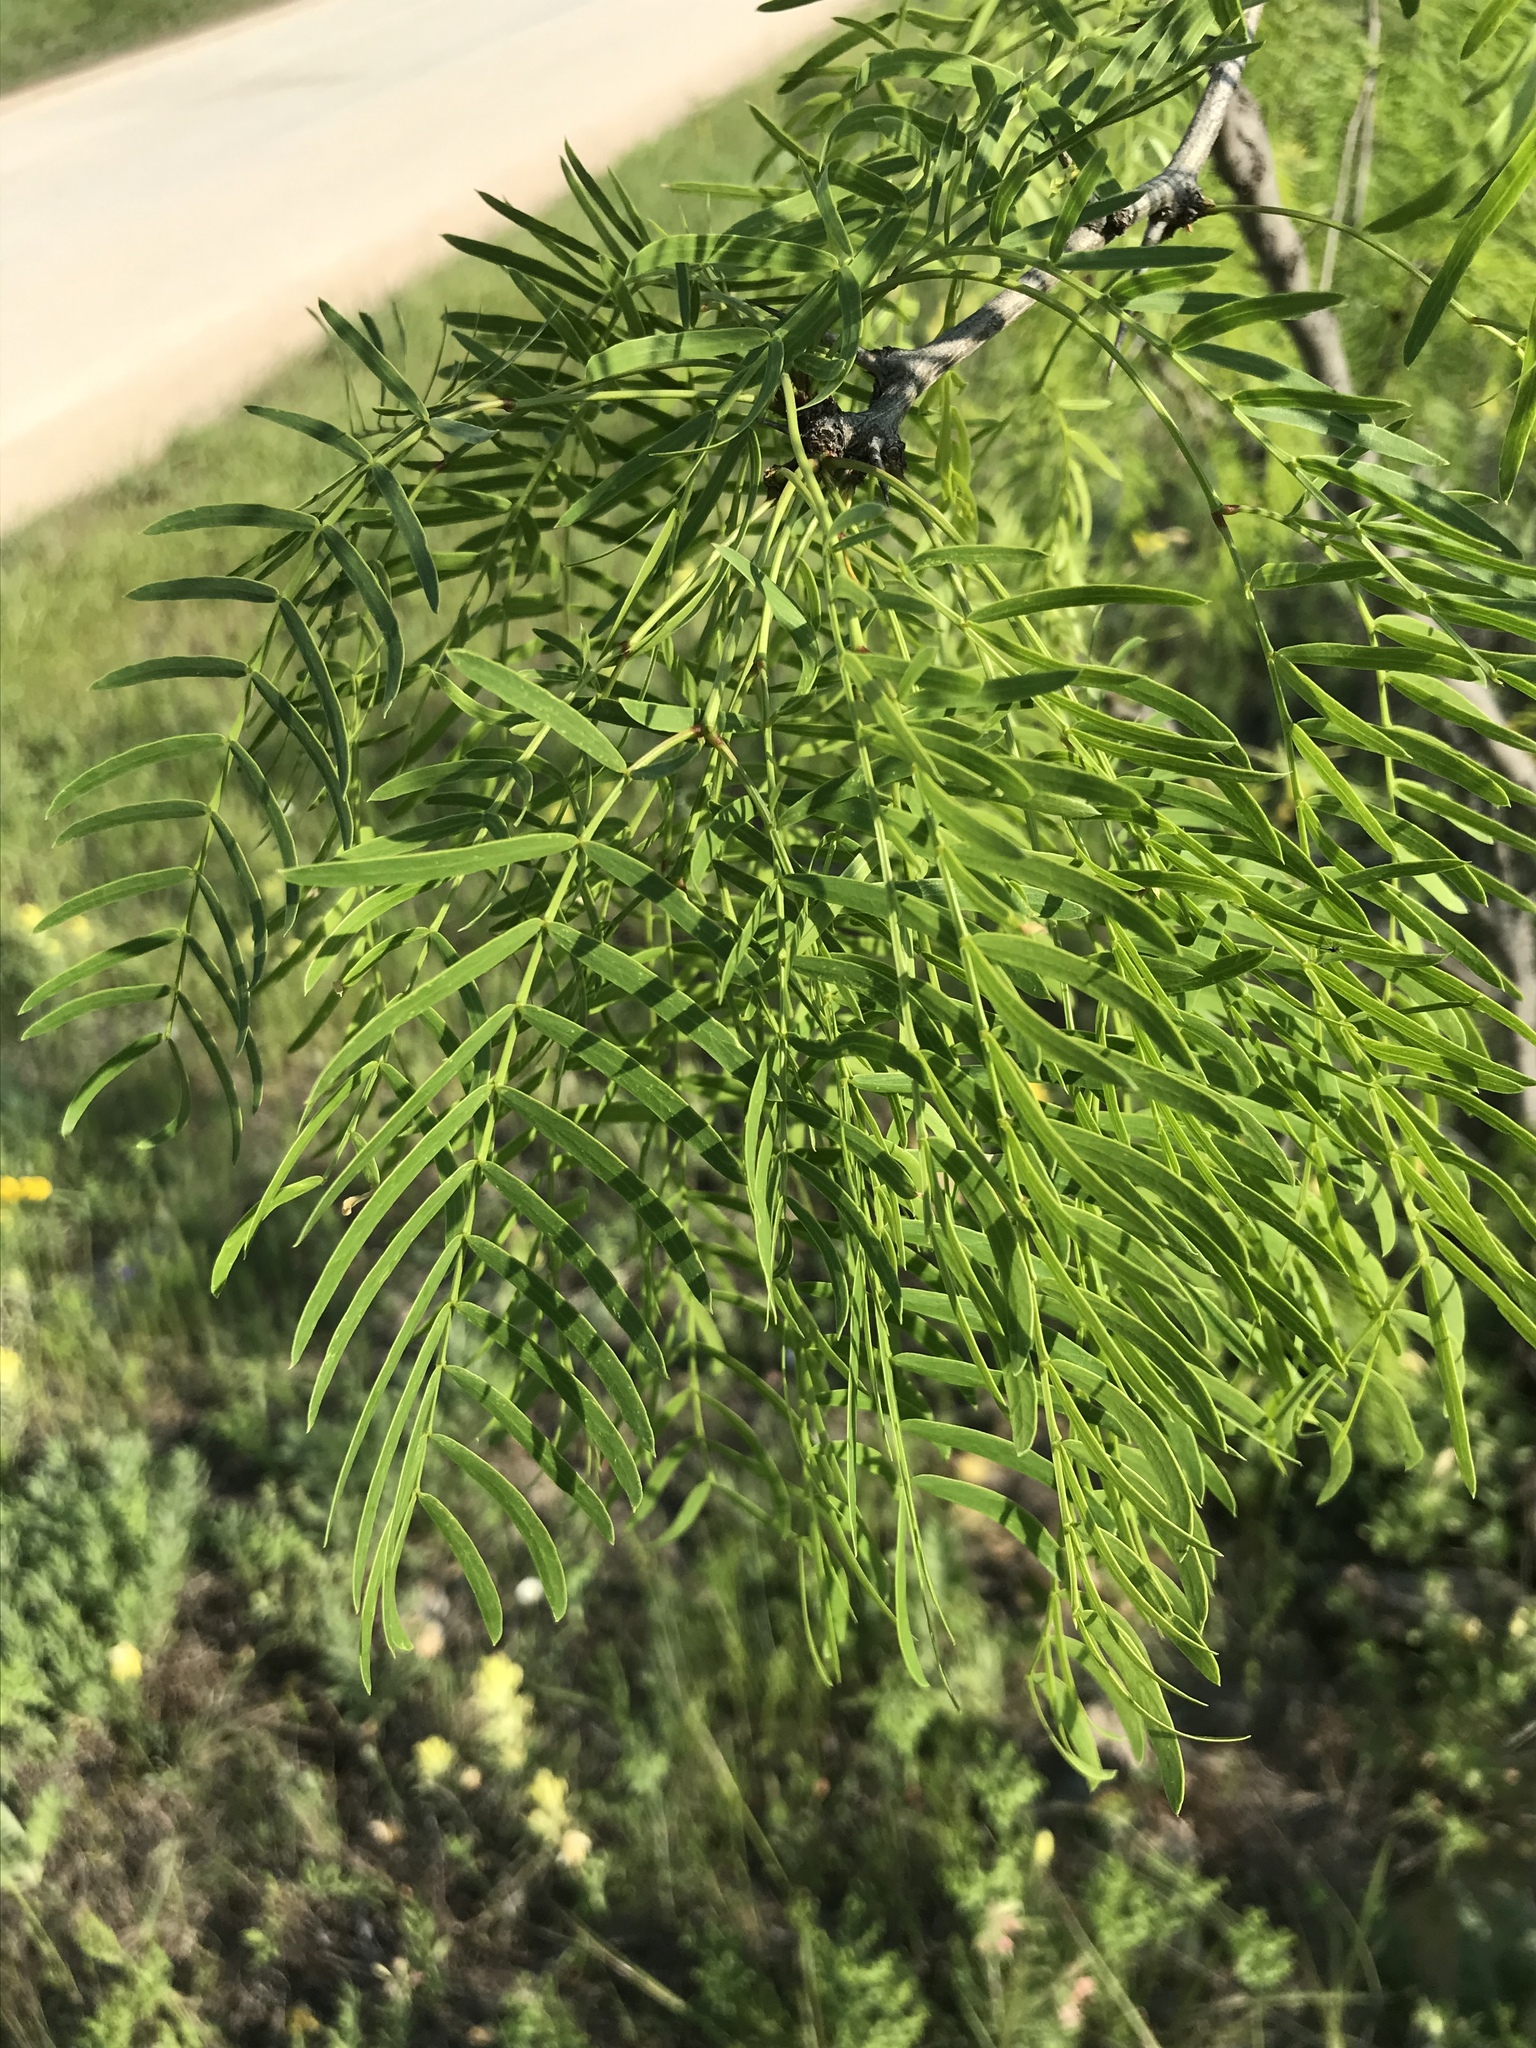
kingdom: Plantae
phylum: Tracheophyta
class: Magnoliopsida
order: Fabales
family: Fabaceae
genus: Prosopis
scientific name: Prosopis glandulosa
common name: Honey mesquite
